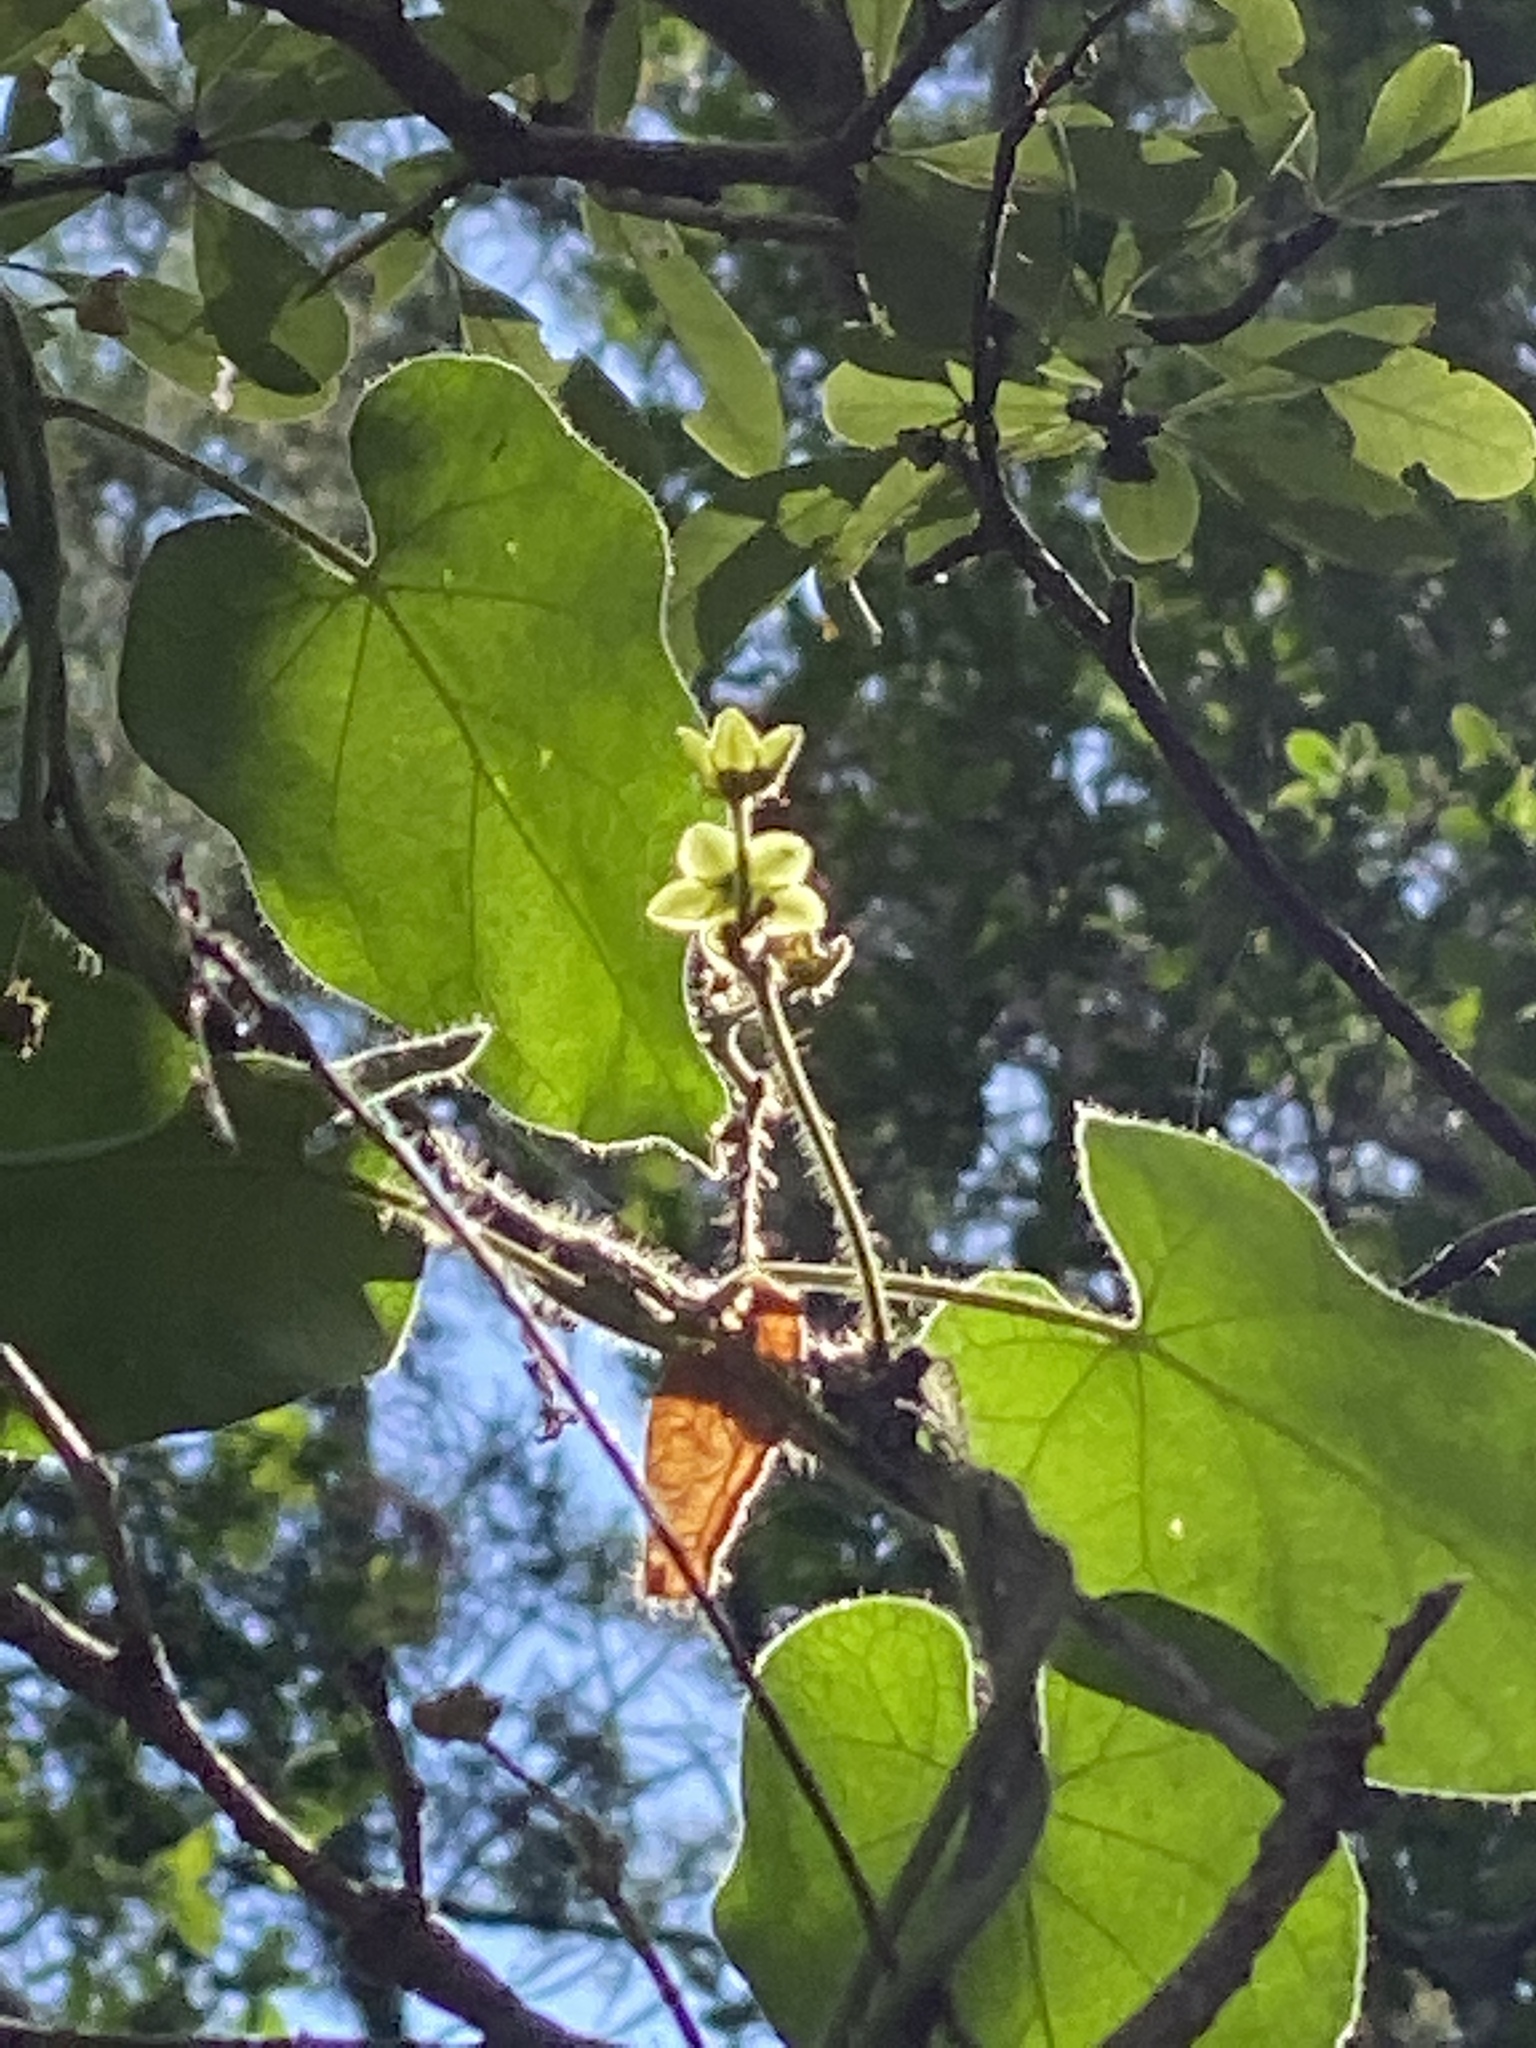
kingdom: Plantae
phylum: Tracheophyta
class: Magnoliopsida
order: Gentianales
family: Apocynaceae
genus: Dictyanthus
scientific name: Dictyanthus reticulatus
